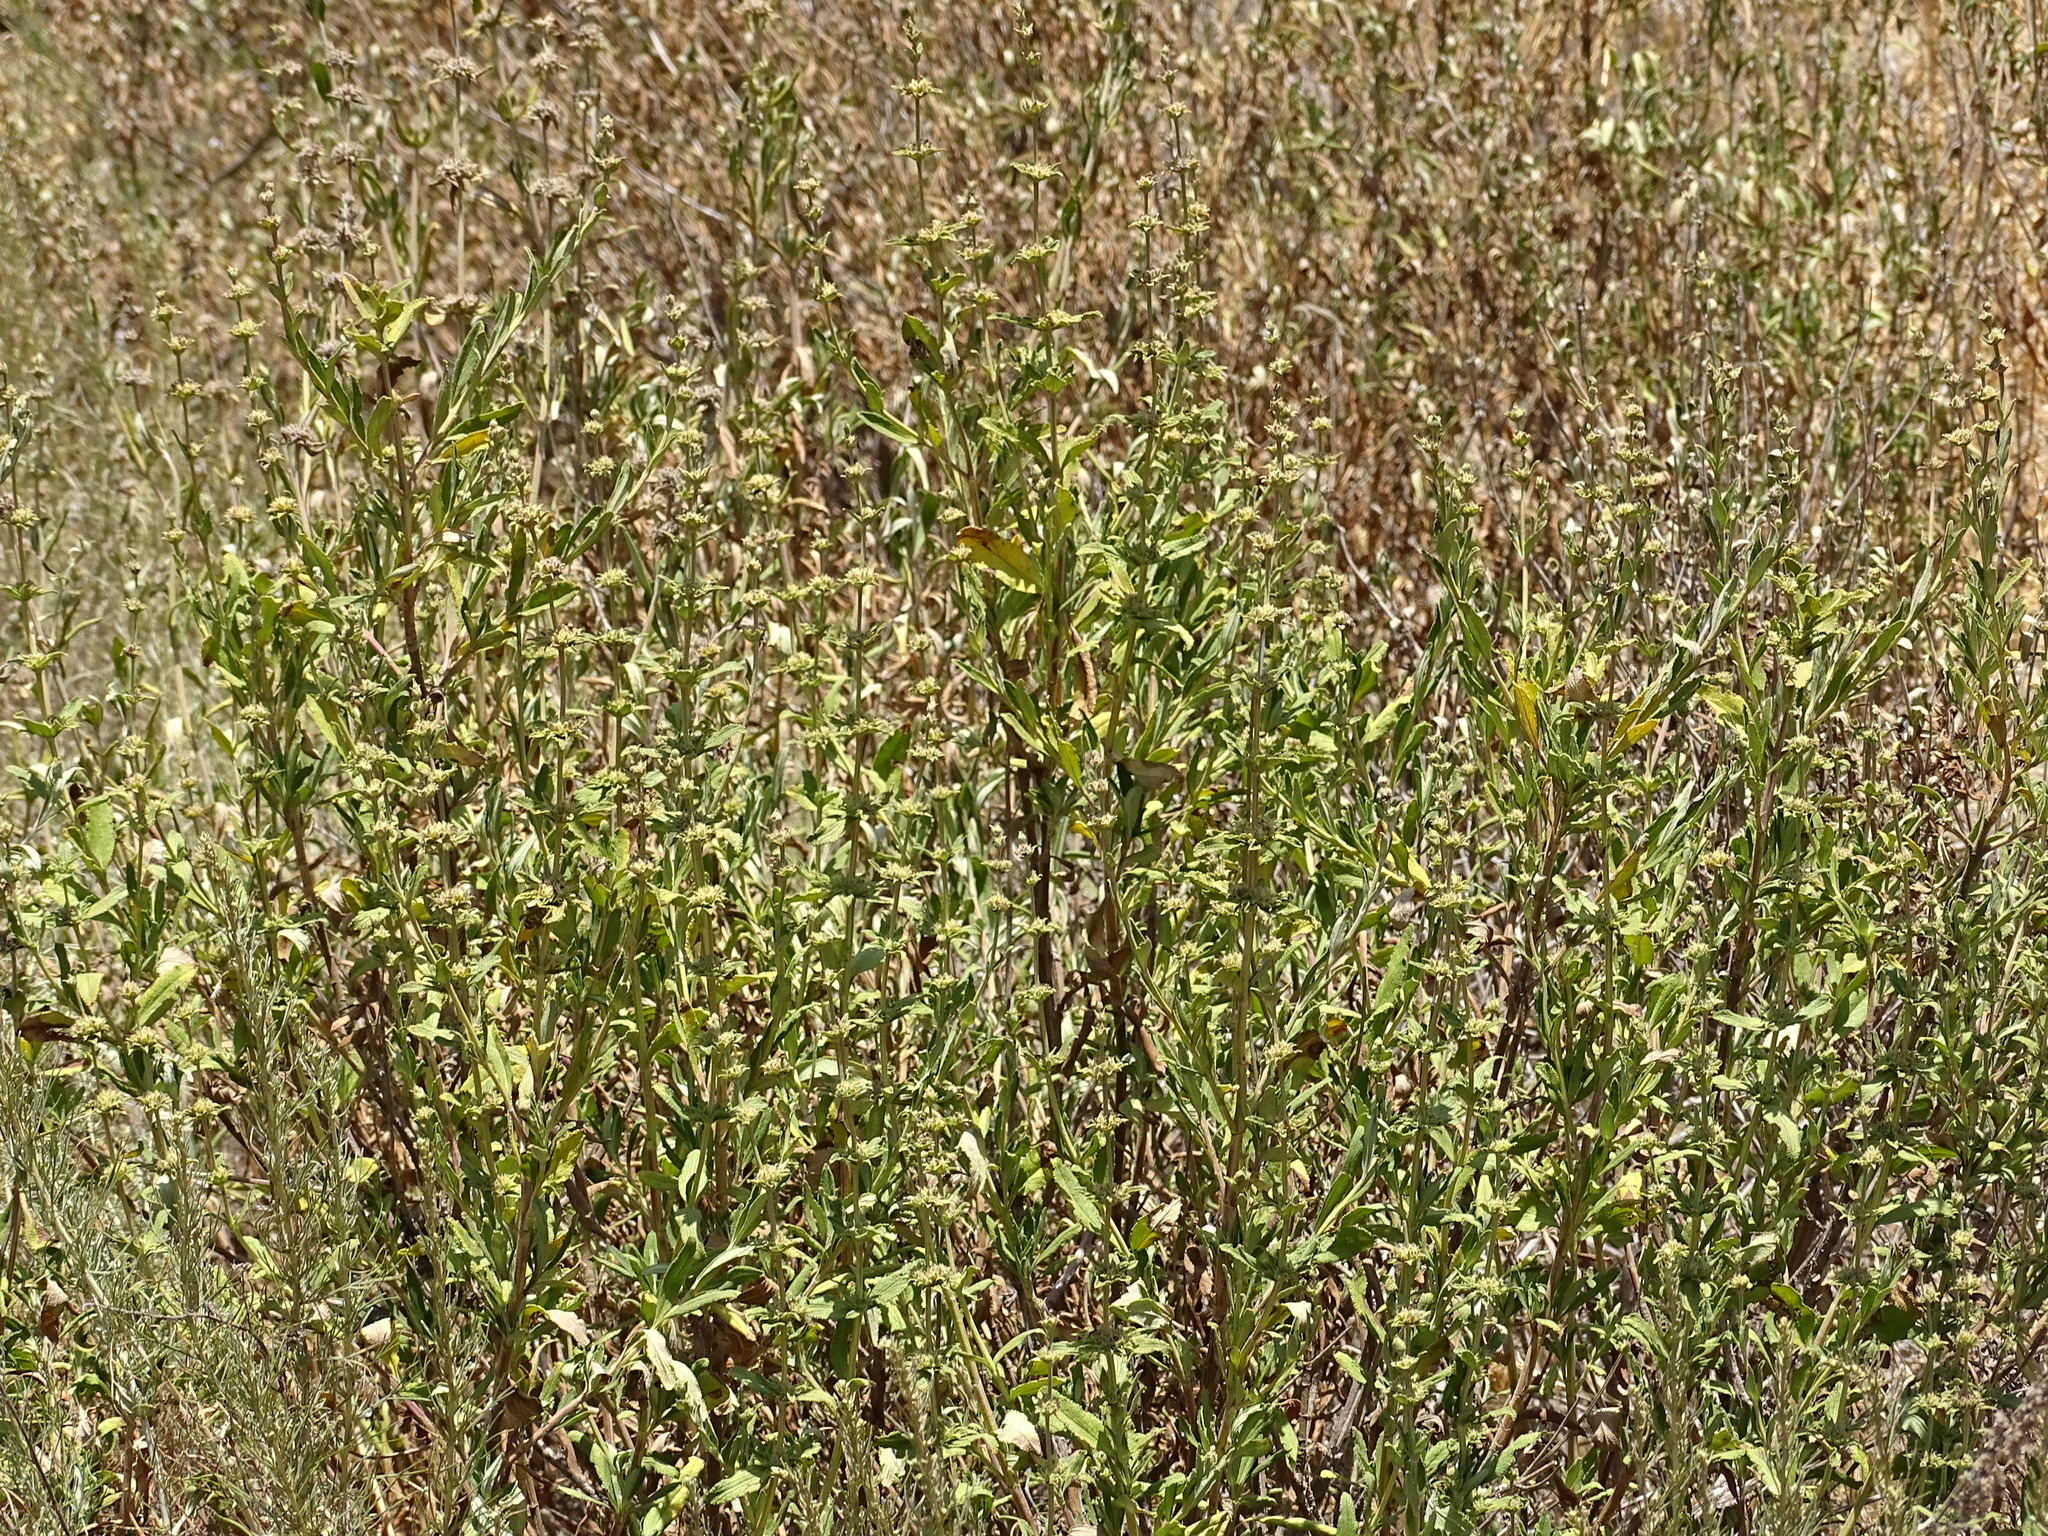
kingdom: Plantae
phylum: Tracheophyta
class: Magnoliopsida
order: Lamiales
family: Lamiaceae
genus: Salvia
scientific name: Salvia mellifera
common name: Black sage
